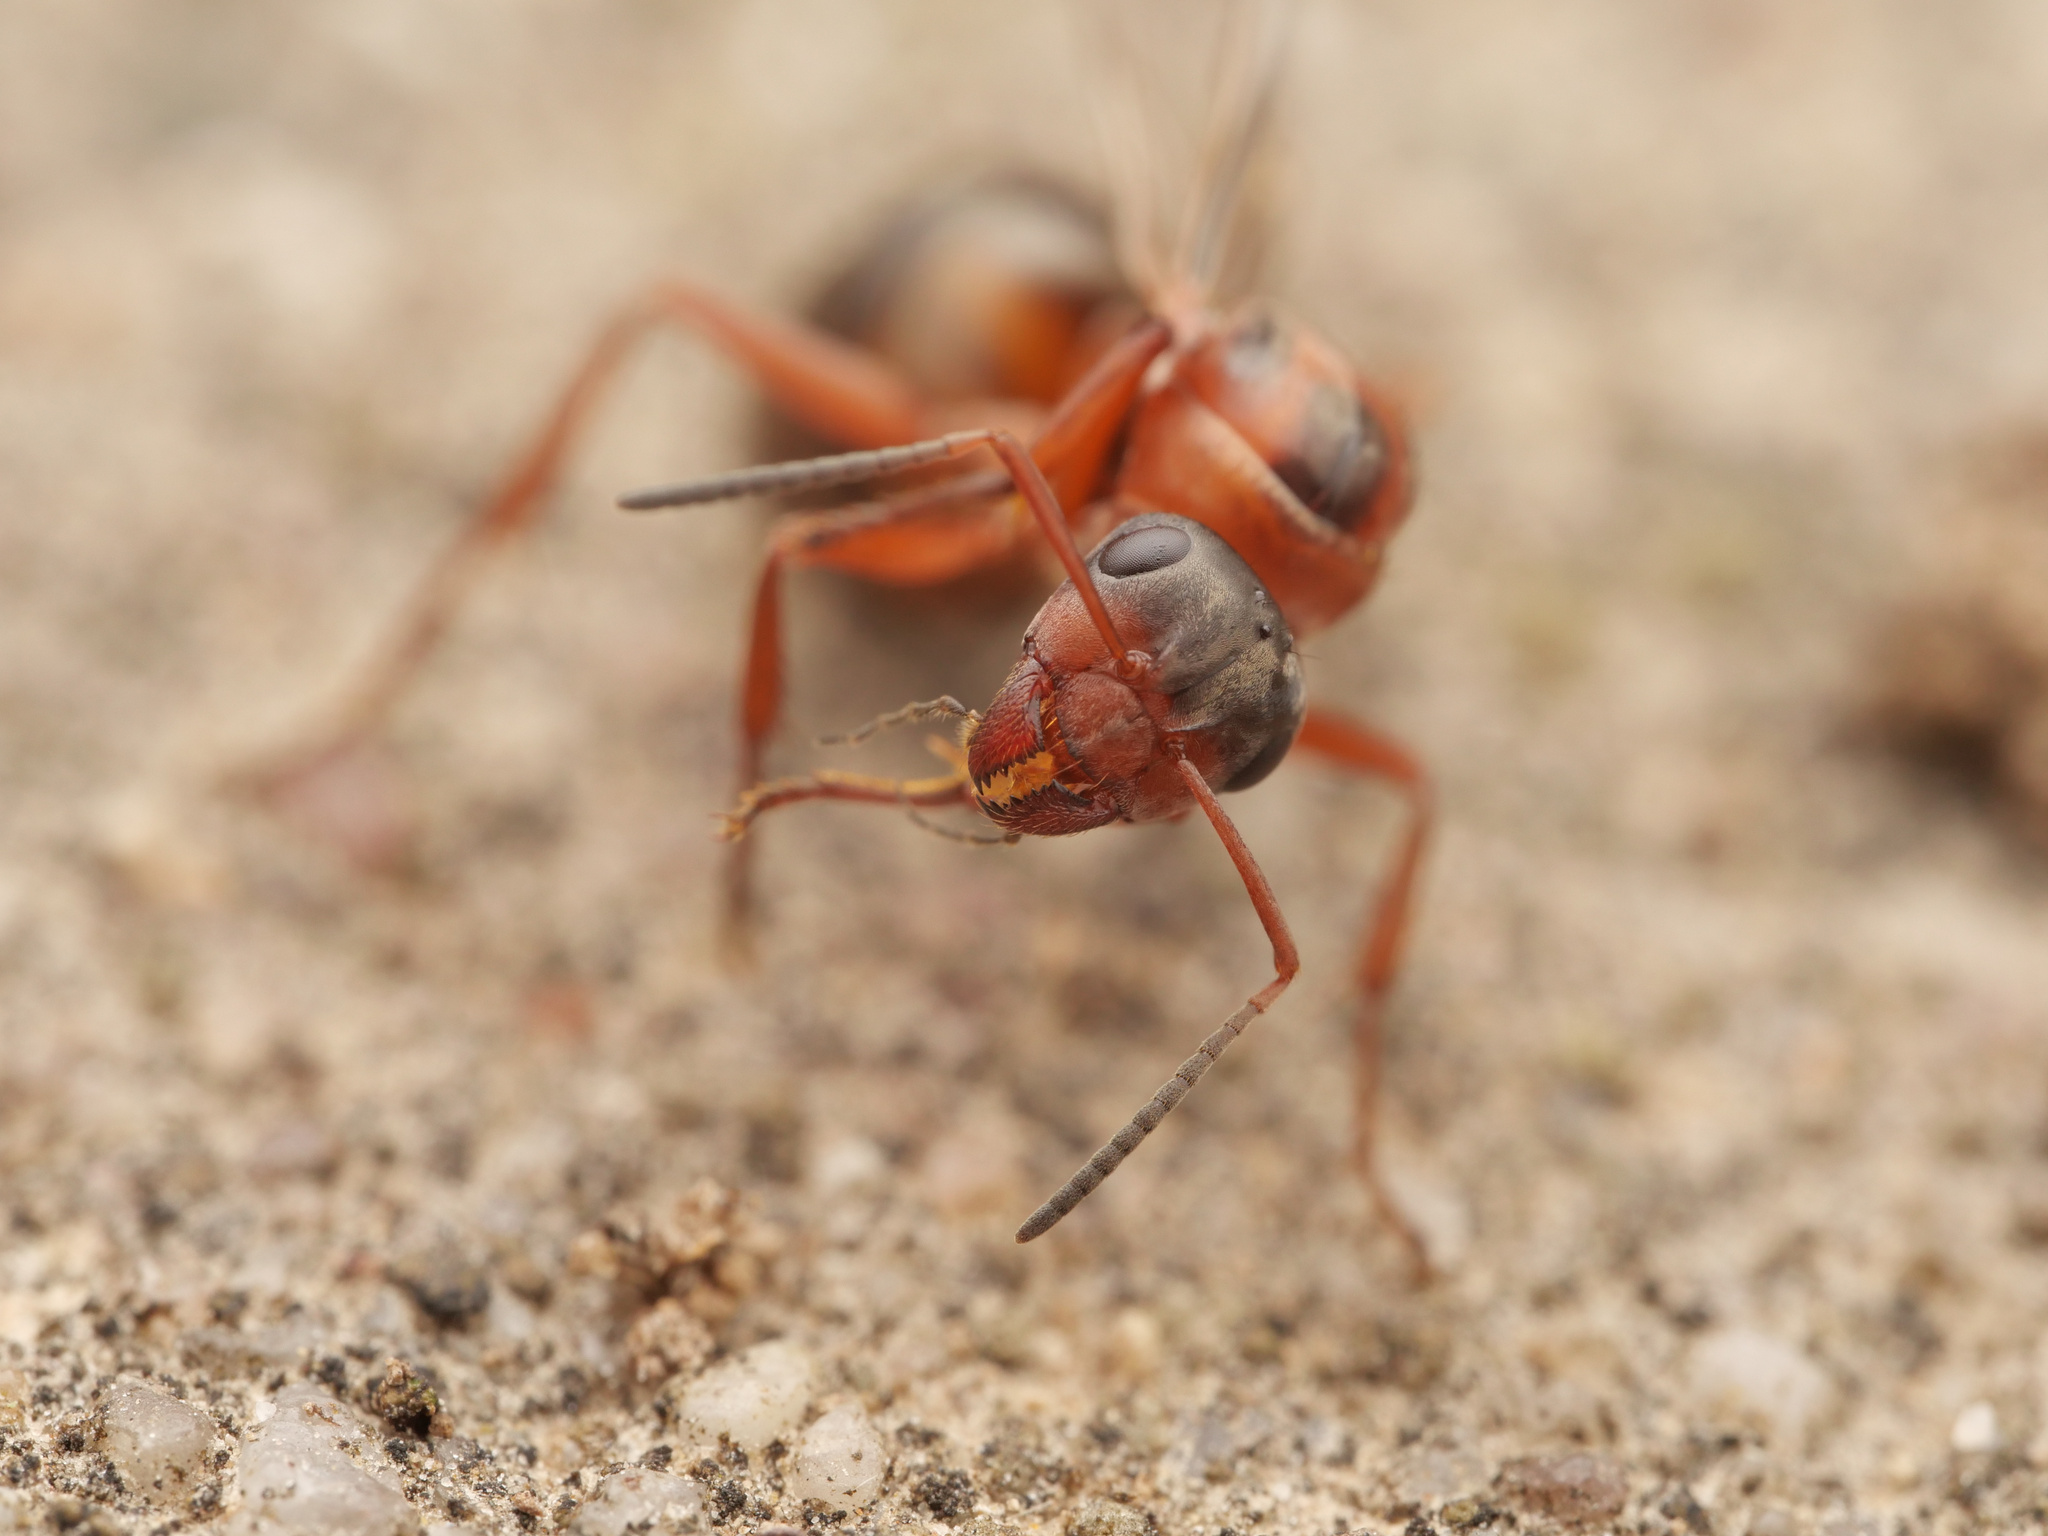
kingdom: Animalia
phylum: Arthropoda
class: Insecta
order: Hymenoptera
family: Formicidae
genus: Formica
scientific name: Formica rufibarbis
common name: Red barbed ant
